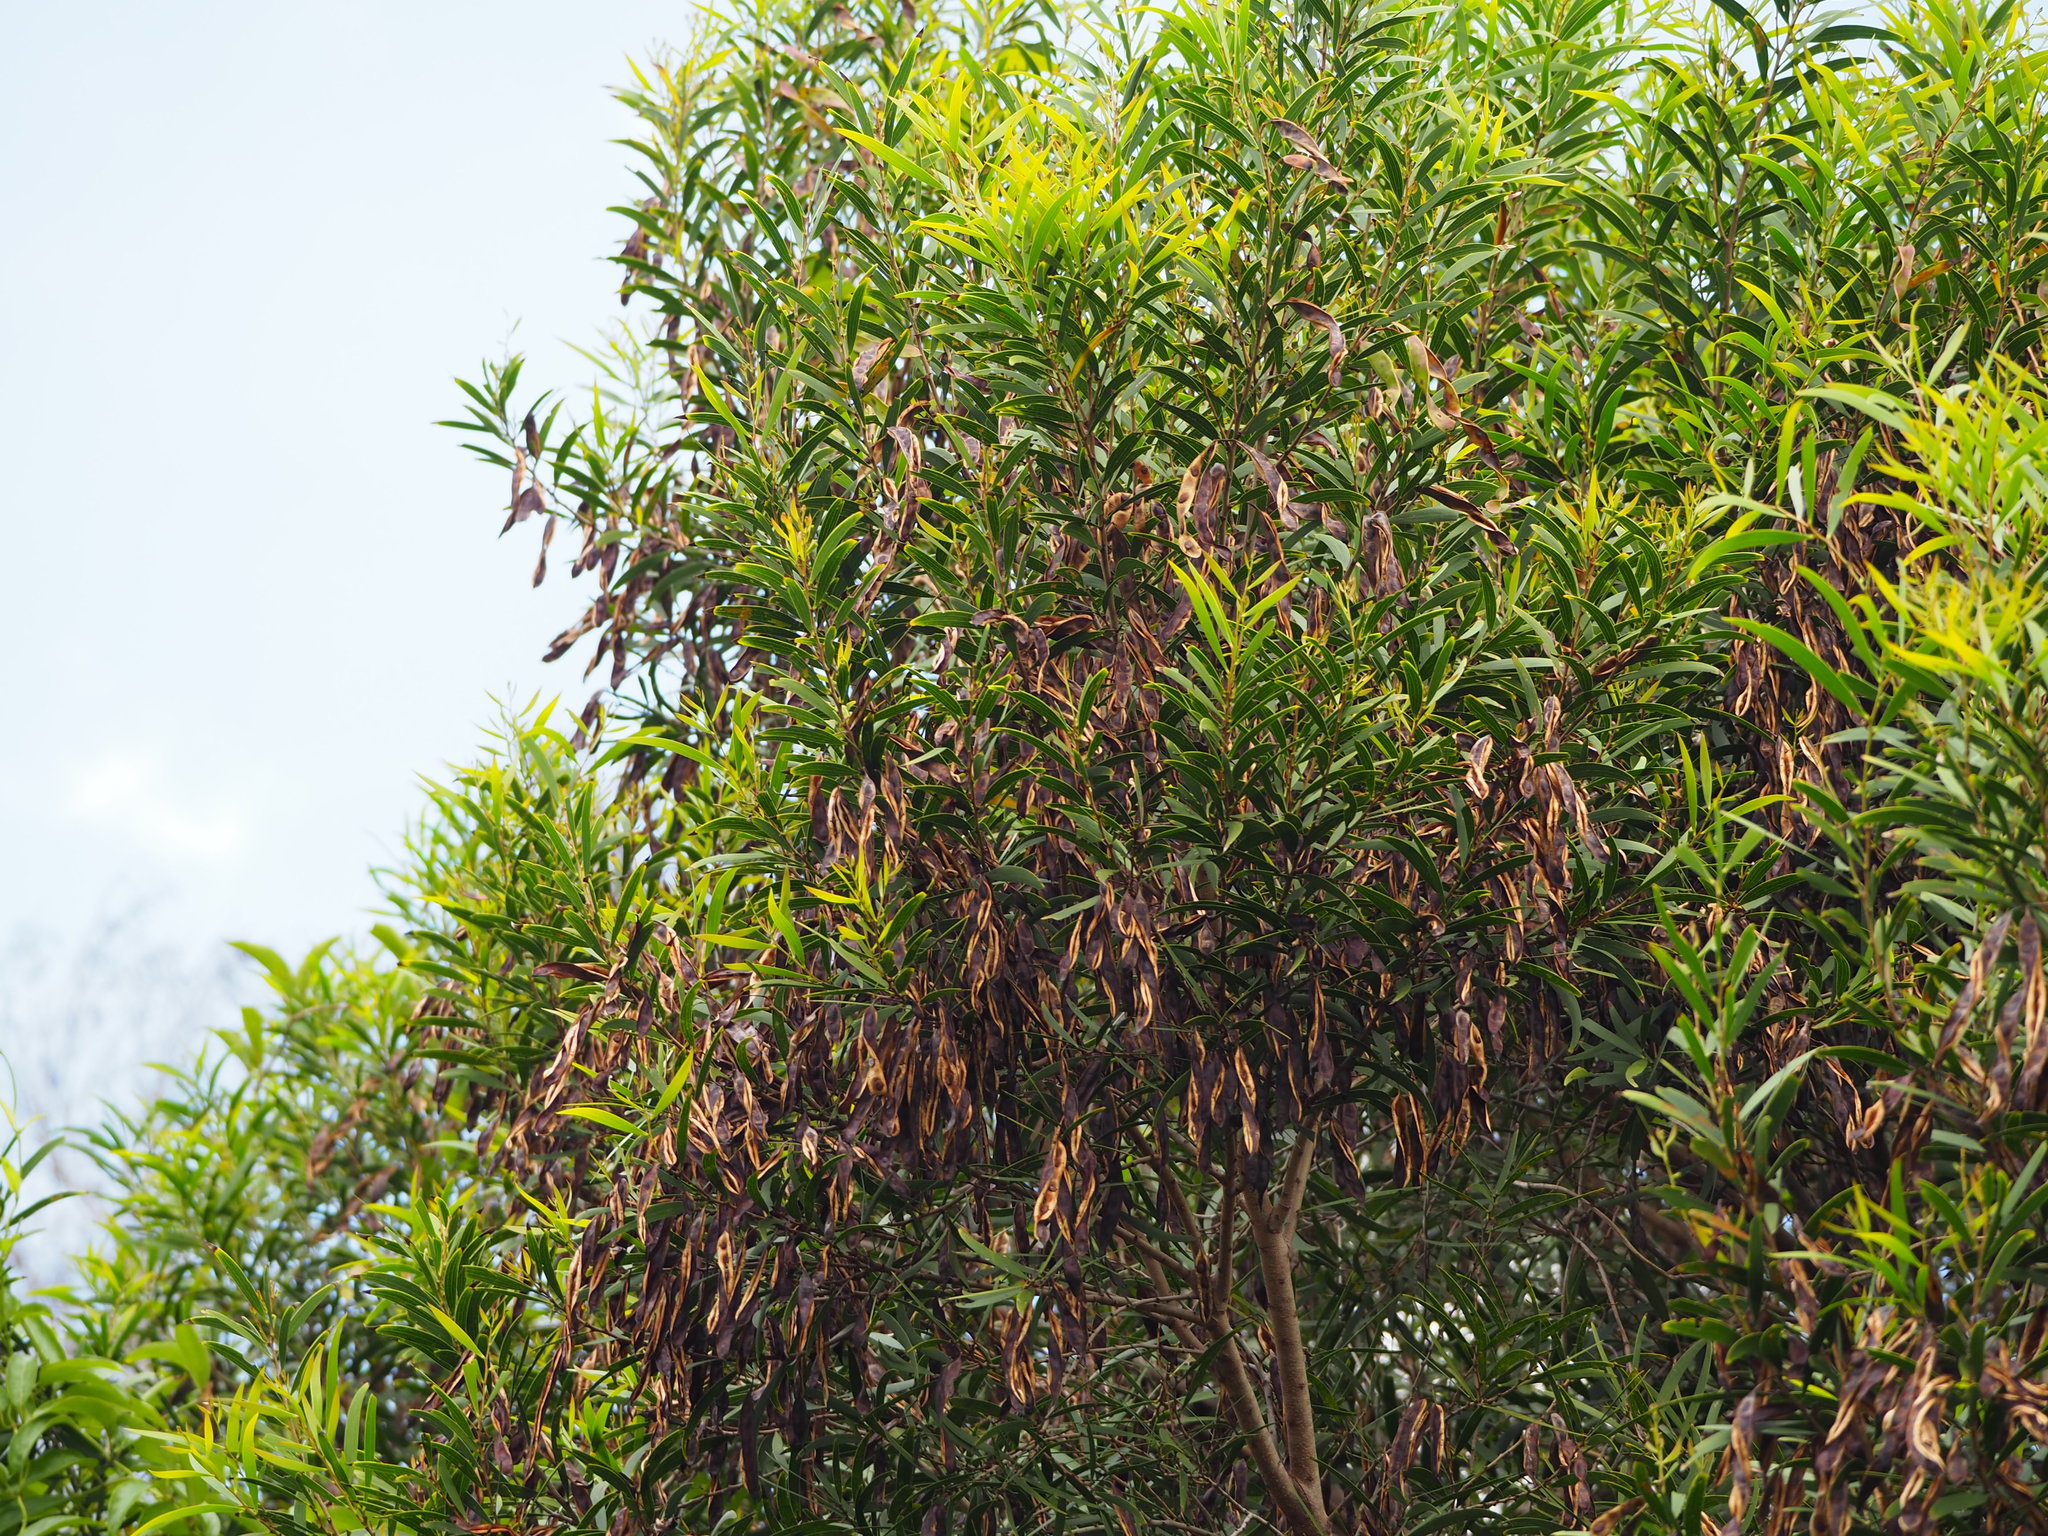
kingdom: Plantae
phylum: Tracheophyta
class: Magnoliopsida
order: Fabales
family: Fabaceae
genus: Acacia
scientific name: Acacia confusa
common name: Formosan koa
